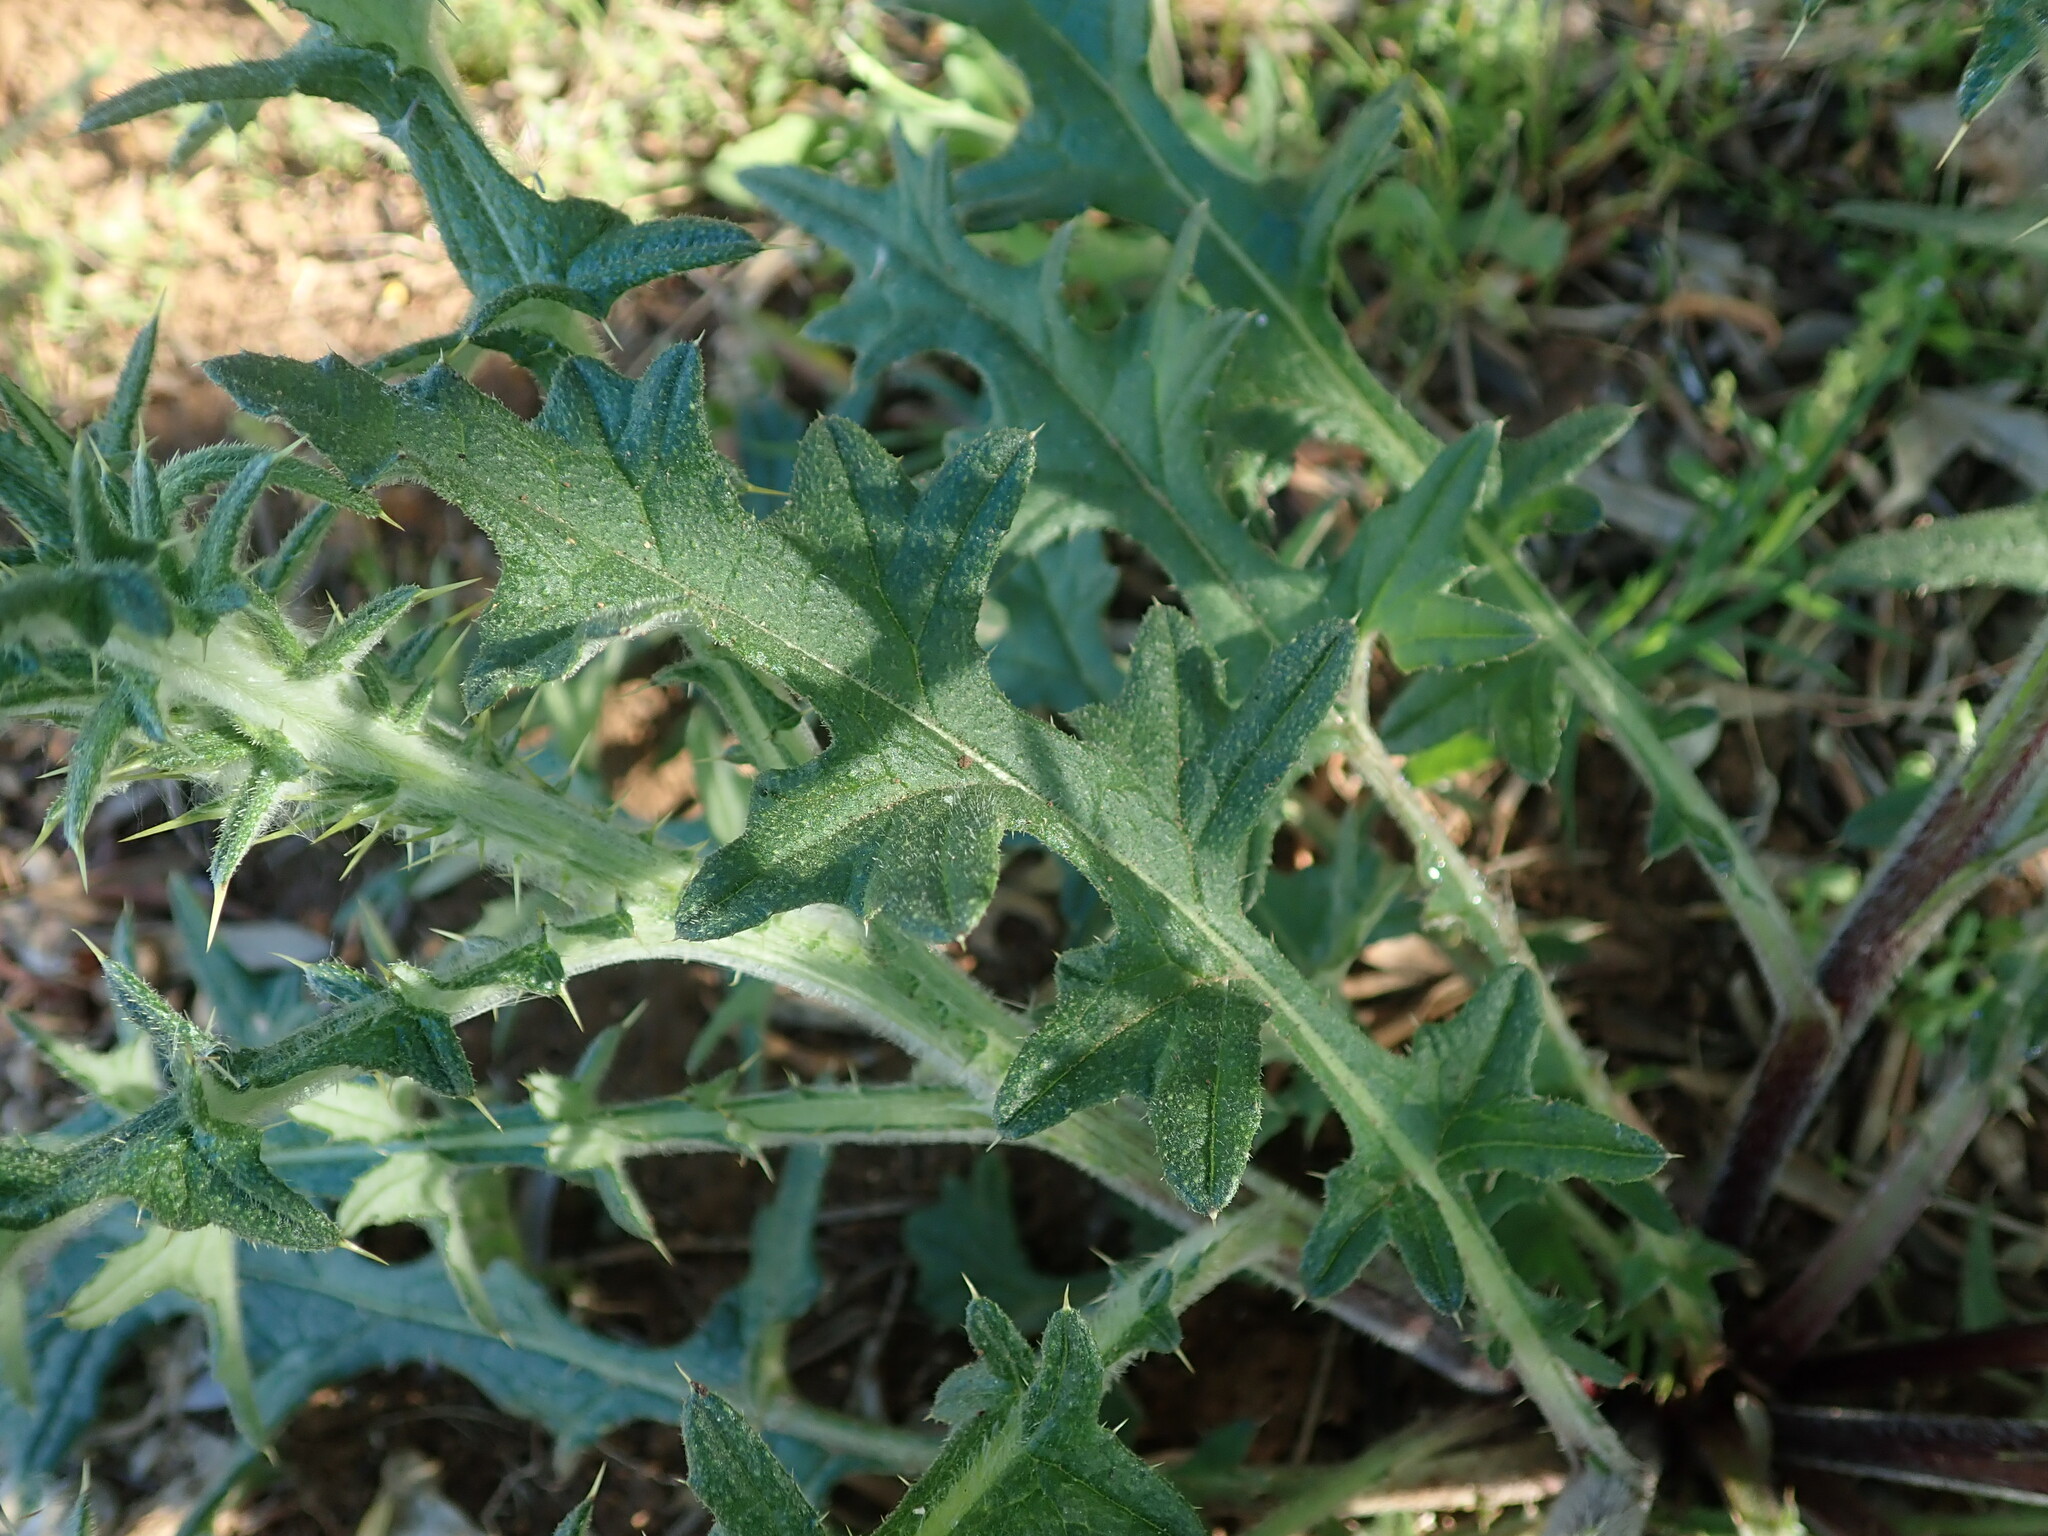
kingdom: Plantae
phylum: Tracheophyta
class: Magnoliopsida
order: Asterales
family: Asteraceae
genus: Cirsium
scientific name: Cirsium vulgare
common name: Bull thistle
